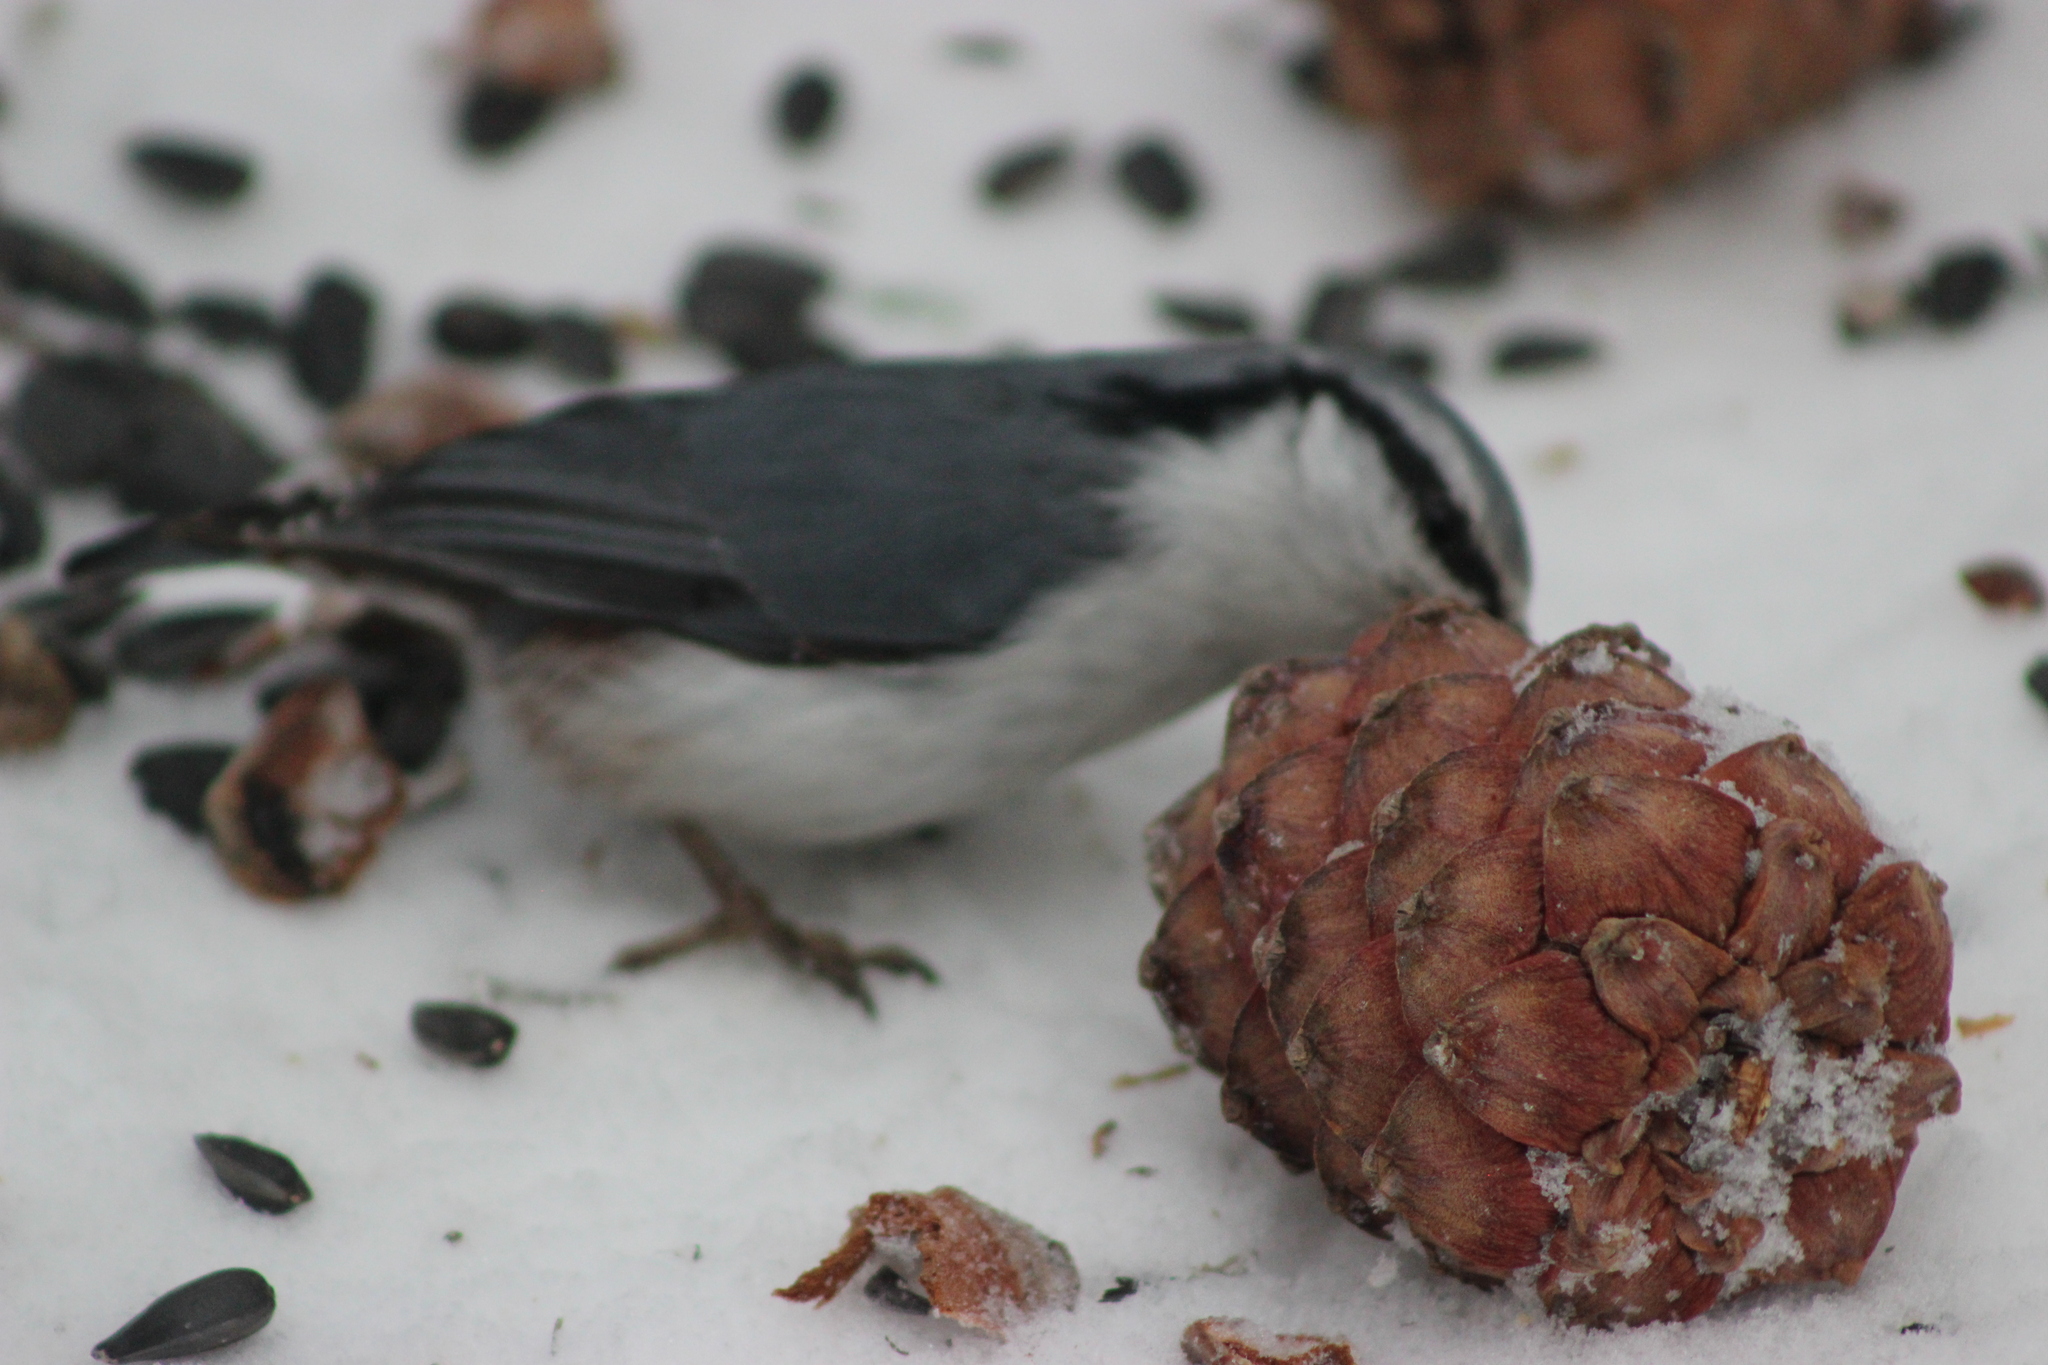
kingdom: Animalia
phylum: Chordata
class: Aves
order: Passeriformes
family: Sittidae
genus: Sitta
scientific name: Sitta europaea
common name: Eurasian nuthatch
